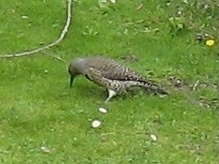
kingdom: Animalia
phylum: Chordata
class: Aves
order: Piciformes
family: Picidae
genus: Colaptes
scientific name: Colaptes auratus
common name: Northern flicker
